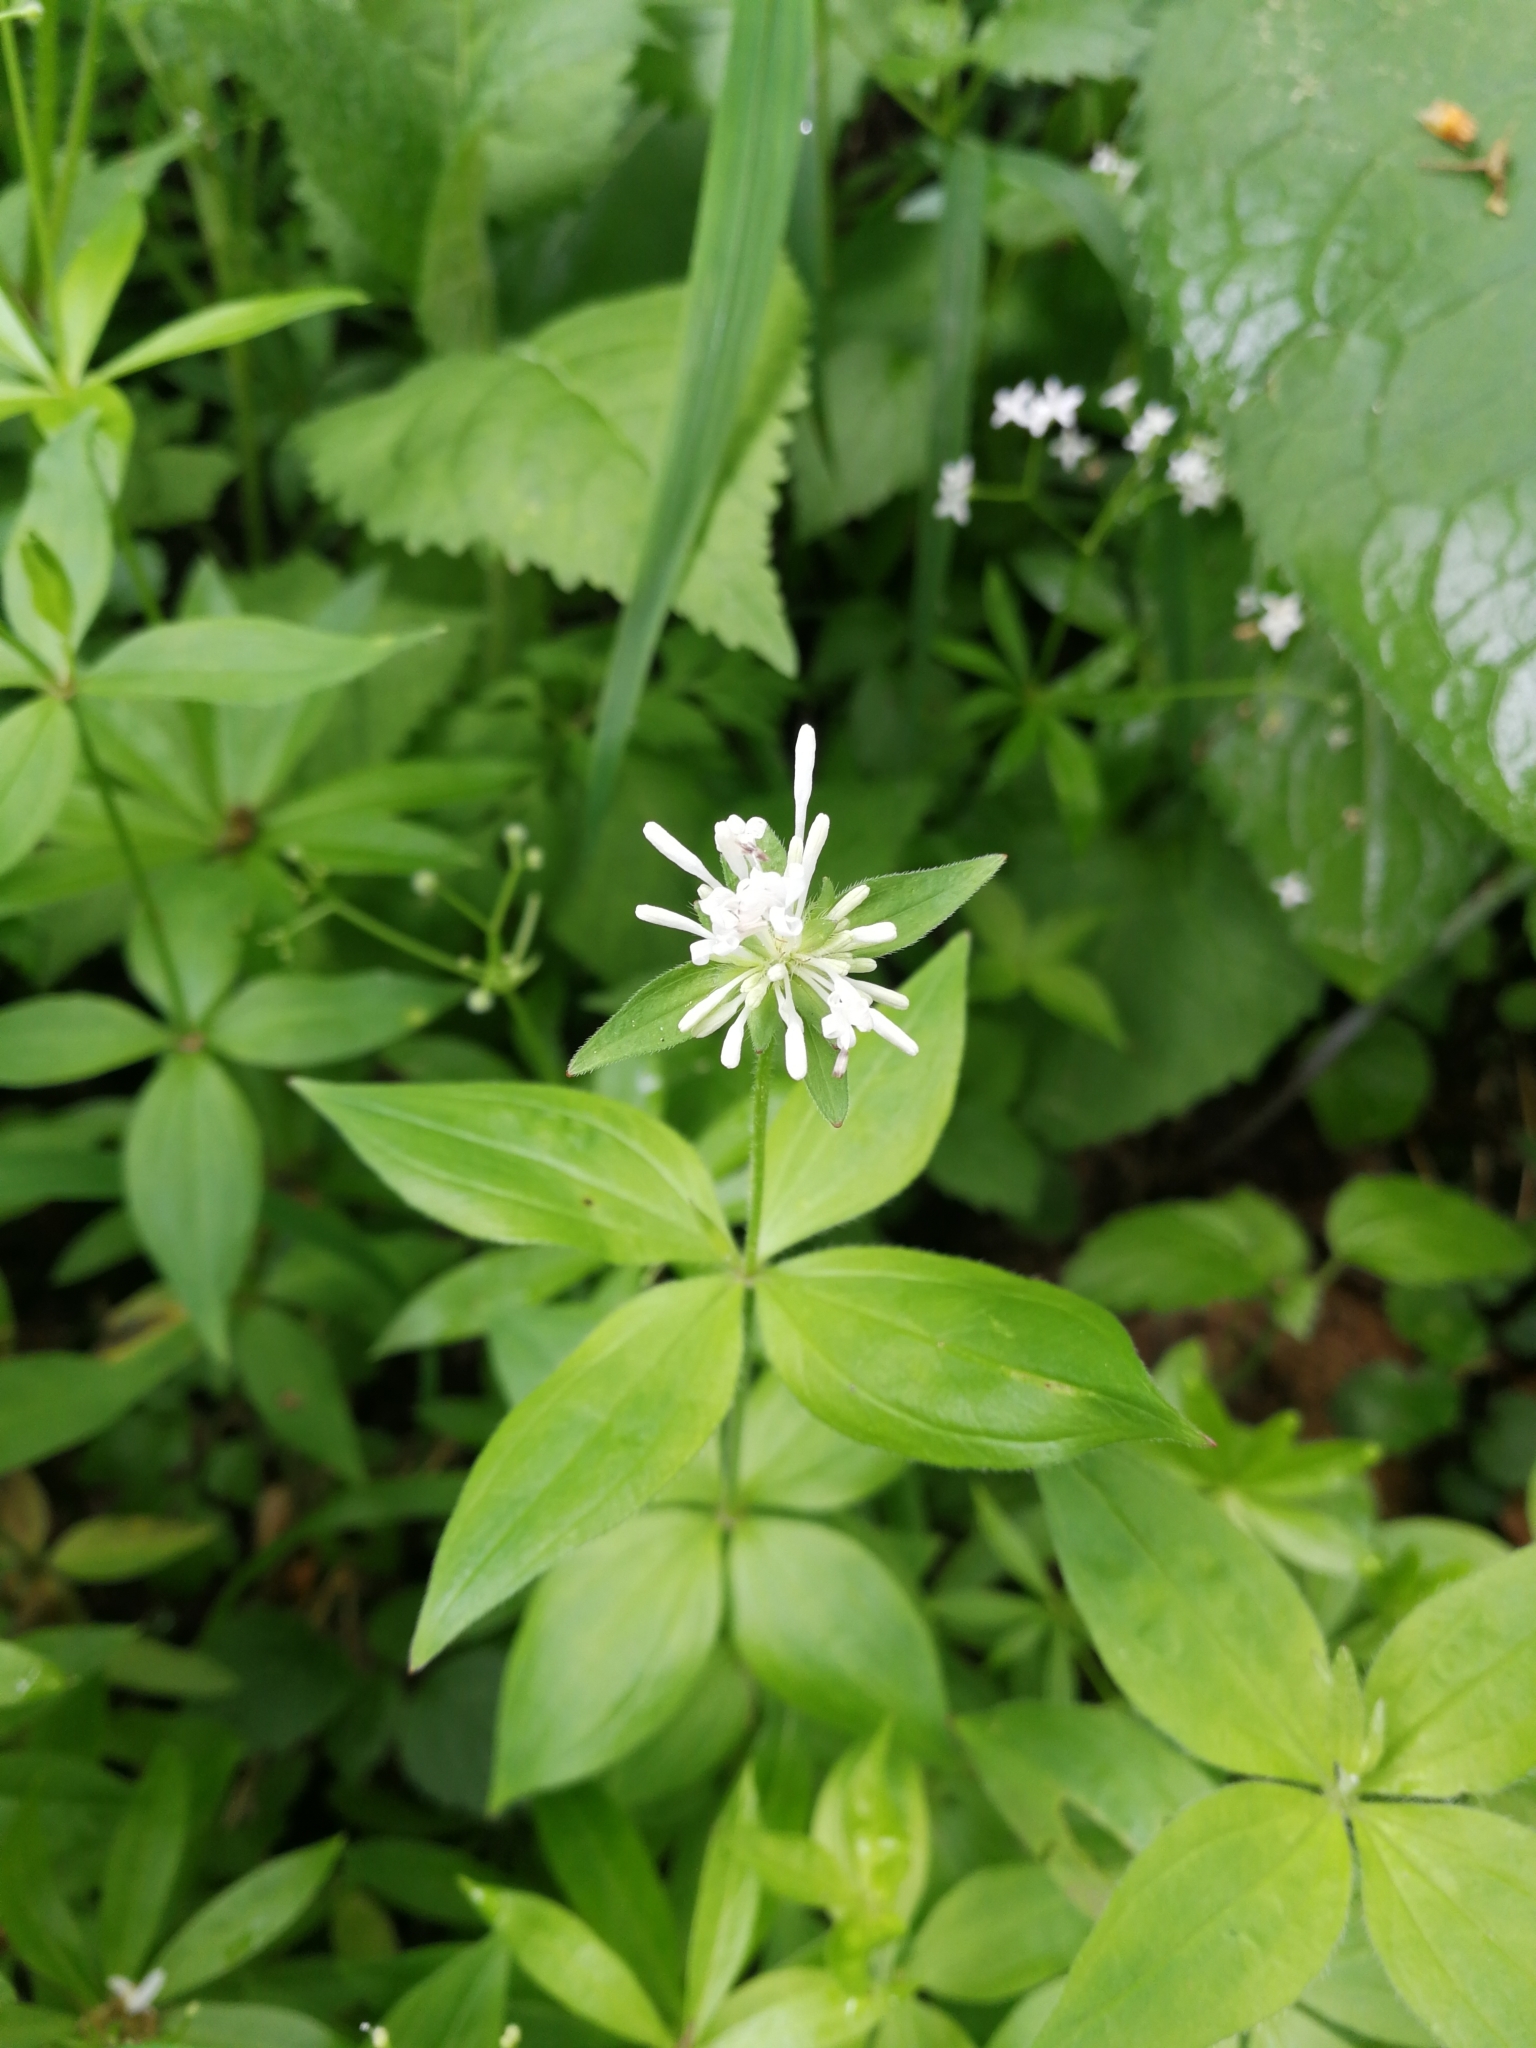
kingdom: Plantae
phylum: Tracheophyta
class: Magnoliopsida
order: Gentianales
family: Rubiaceae
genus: Asperula
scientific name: Asperula taurina
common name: Pink woodruff
